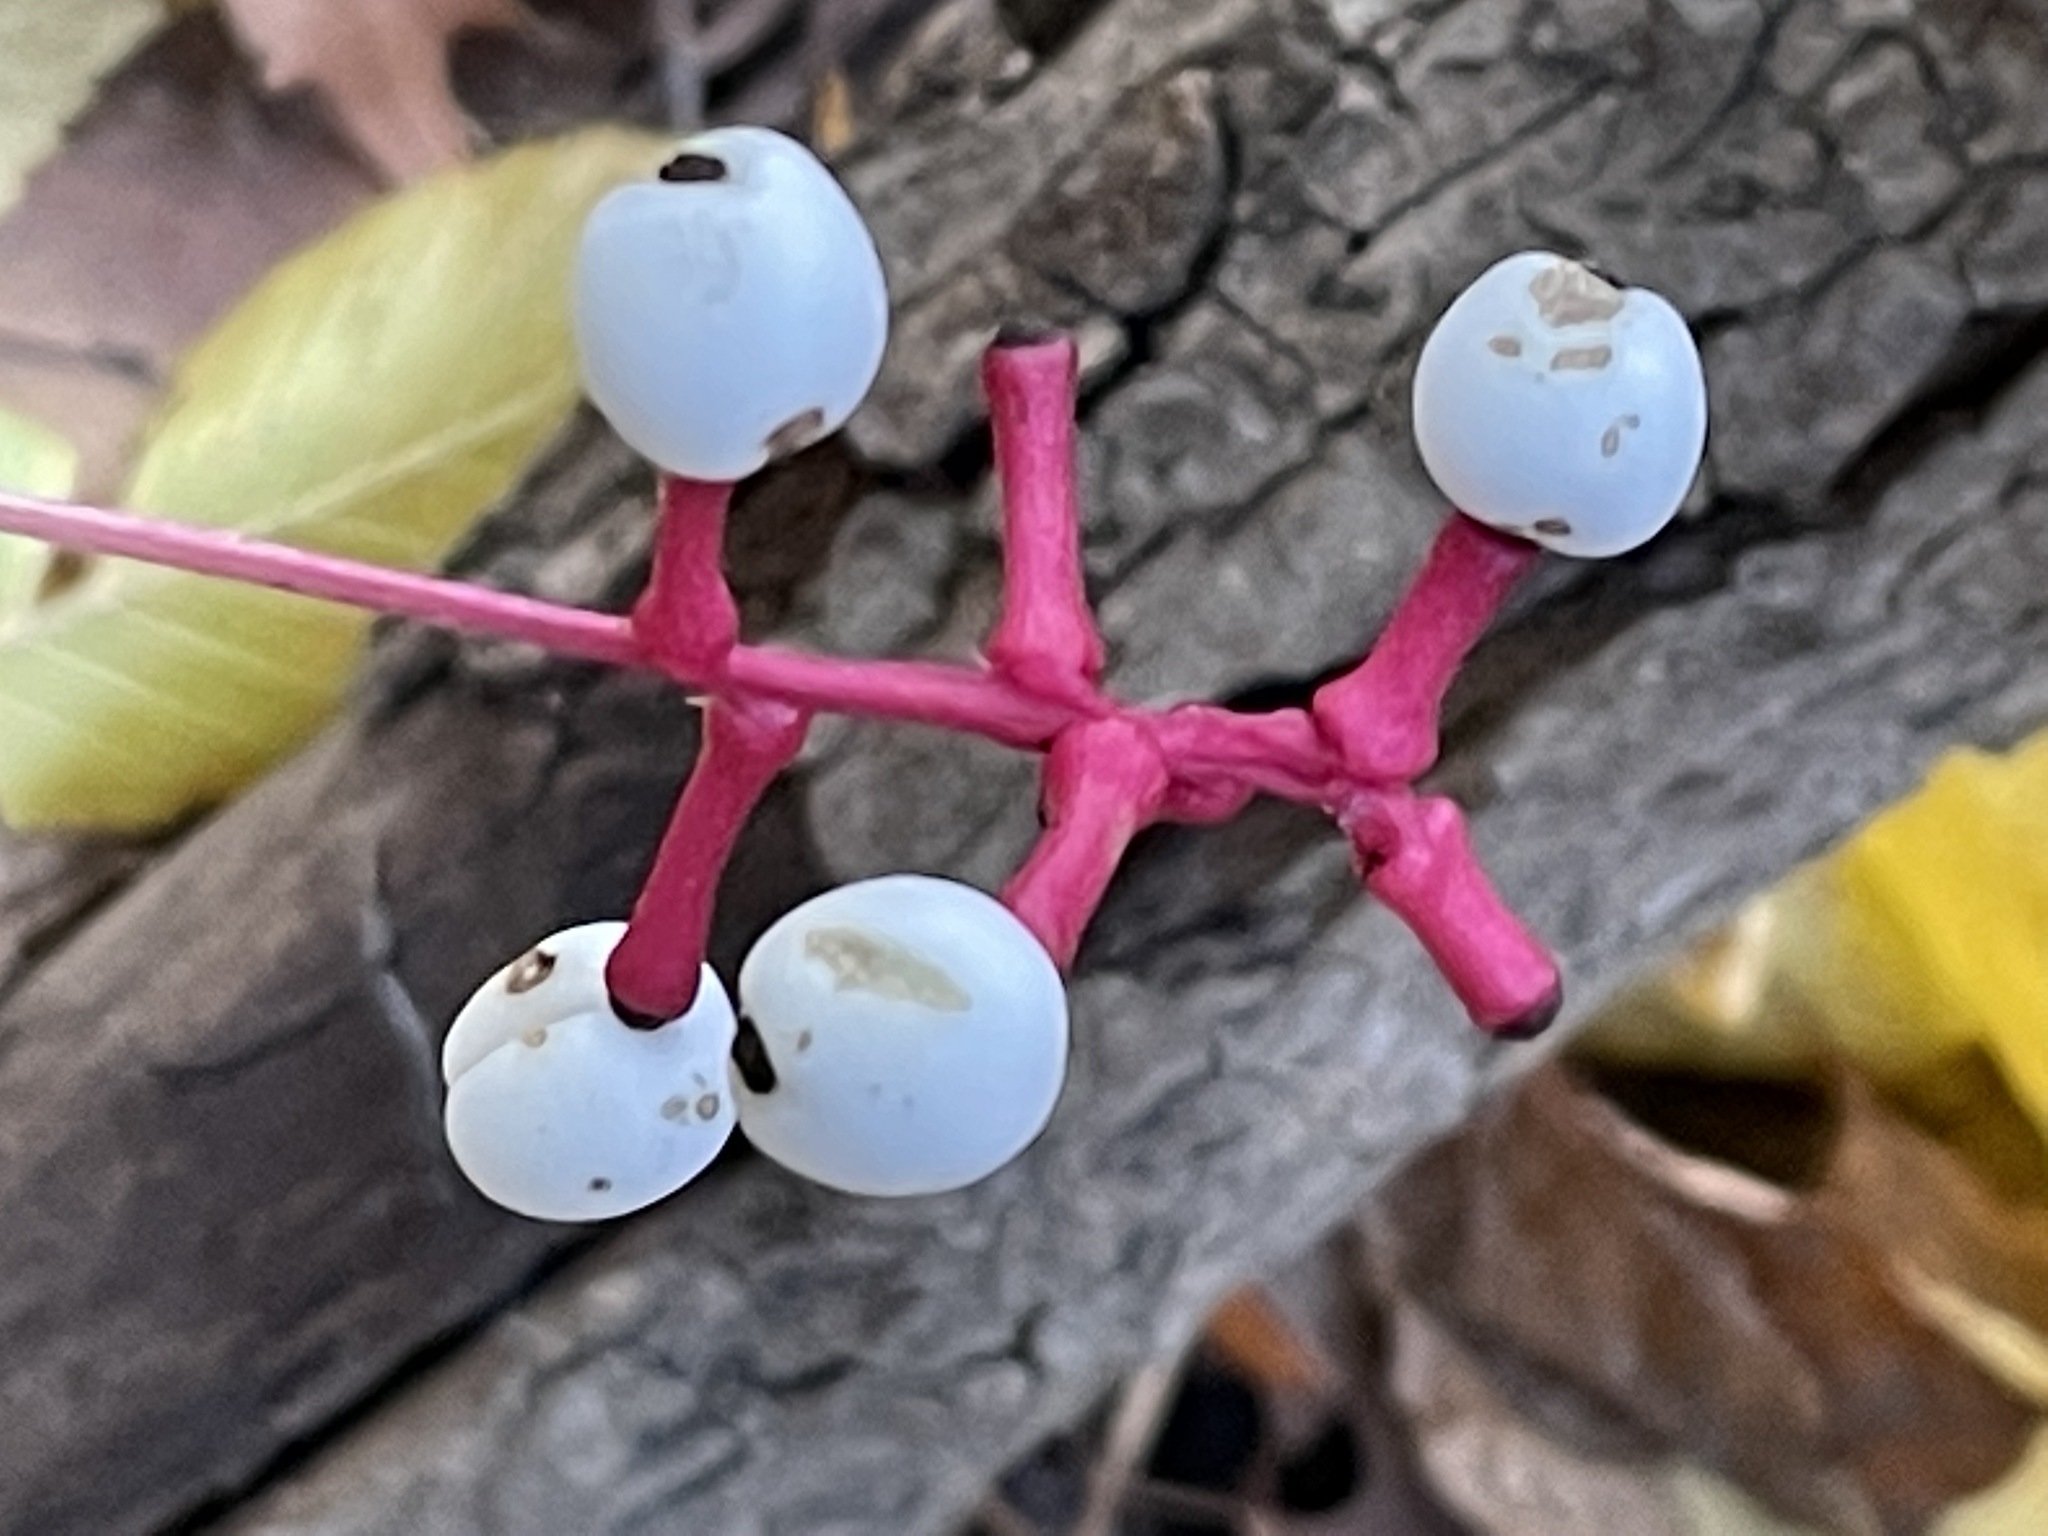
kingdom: Plantae
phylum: Tracheophyta
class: Magnoliopsida
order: Ranunculales
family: Ranunculaceae
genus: Actaea
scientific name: Actaea pachypoda
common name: Doll's-eyes
